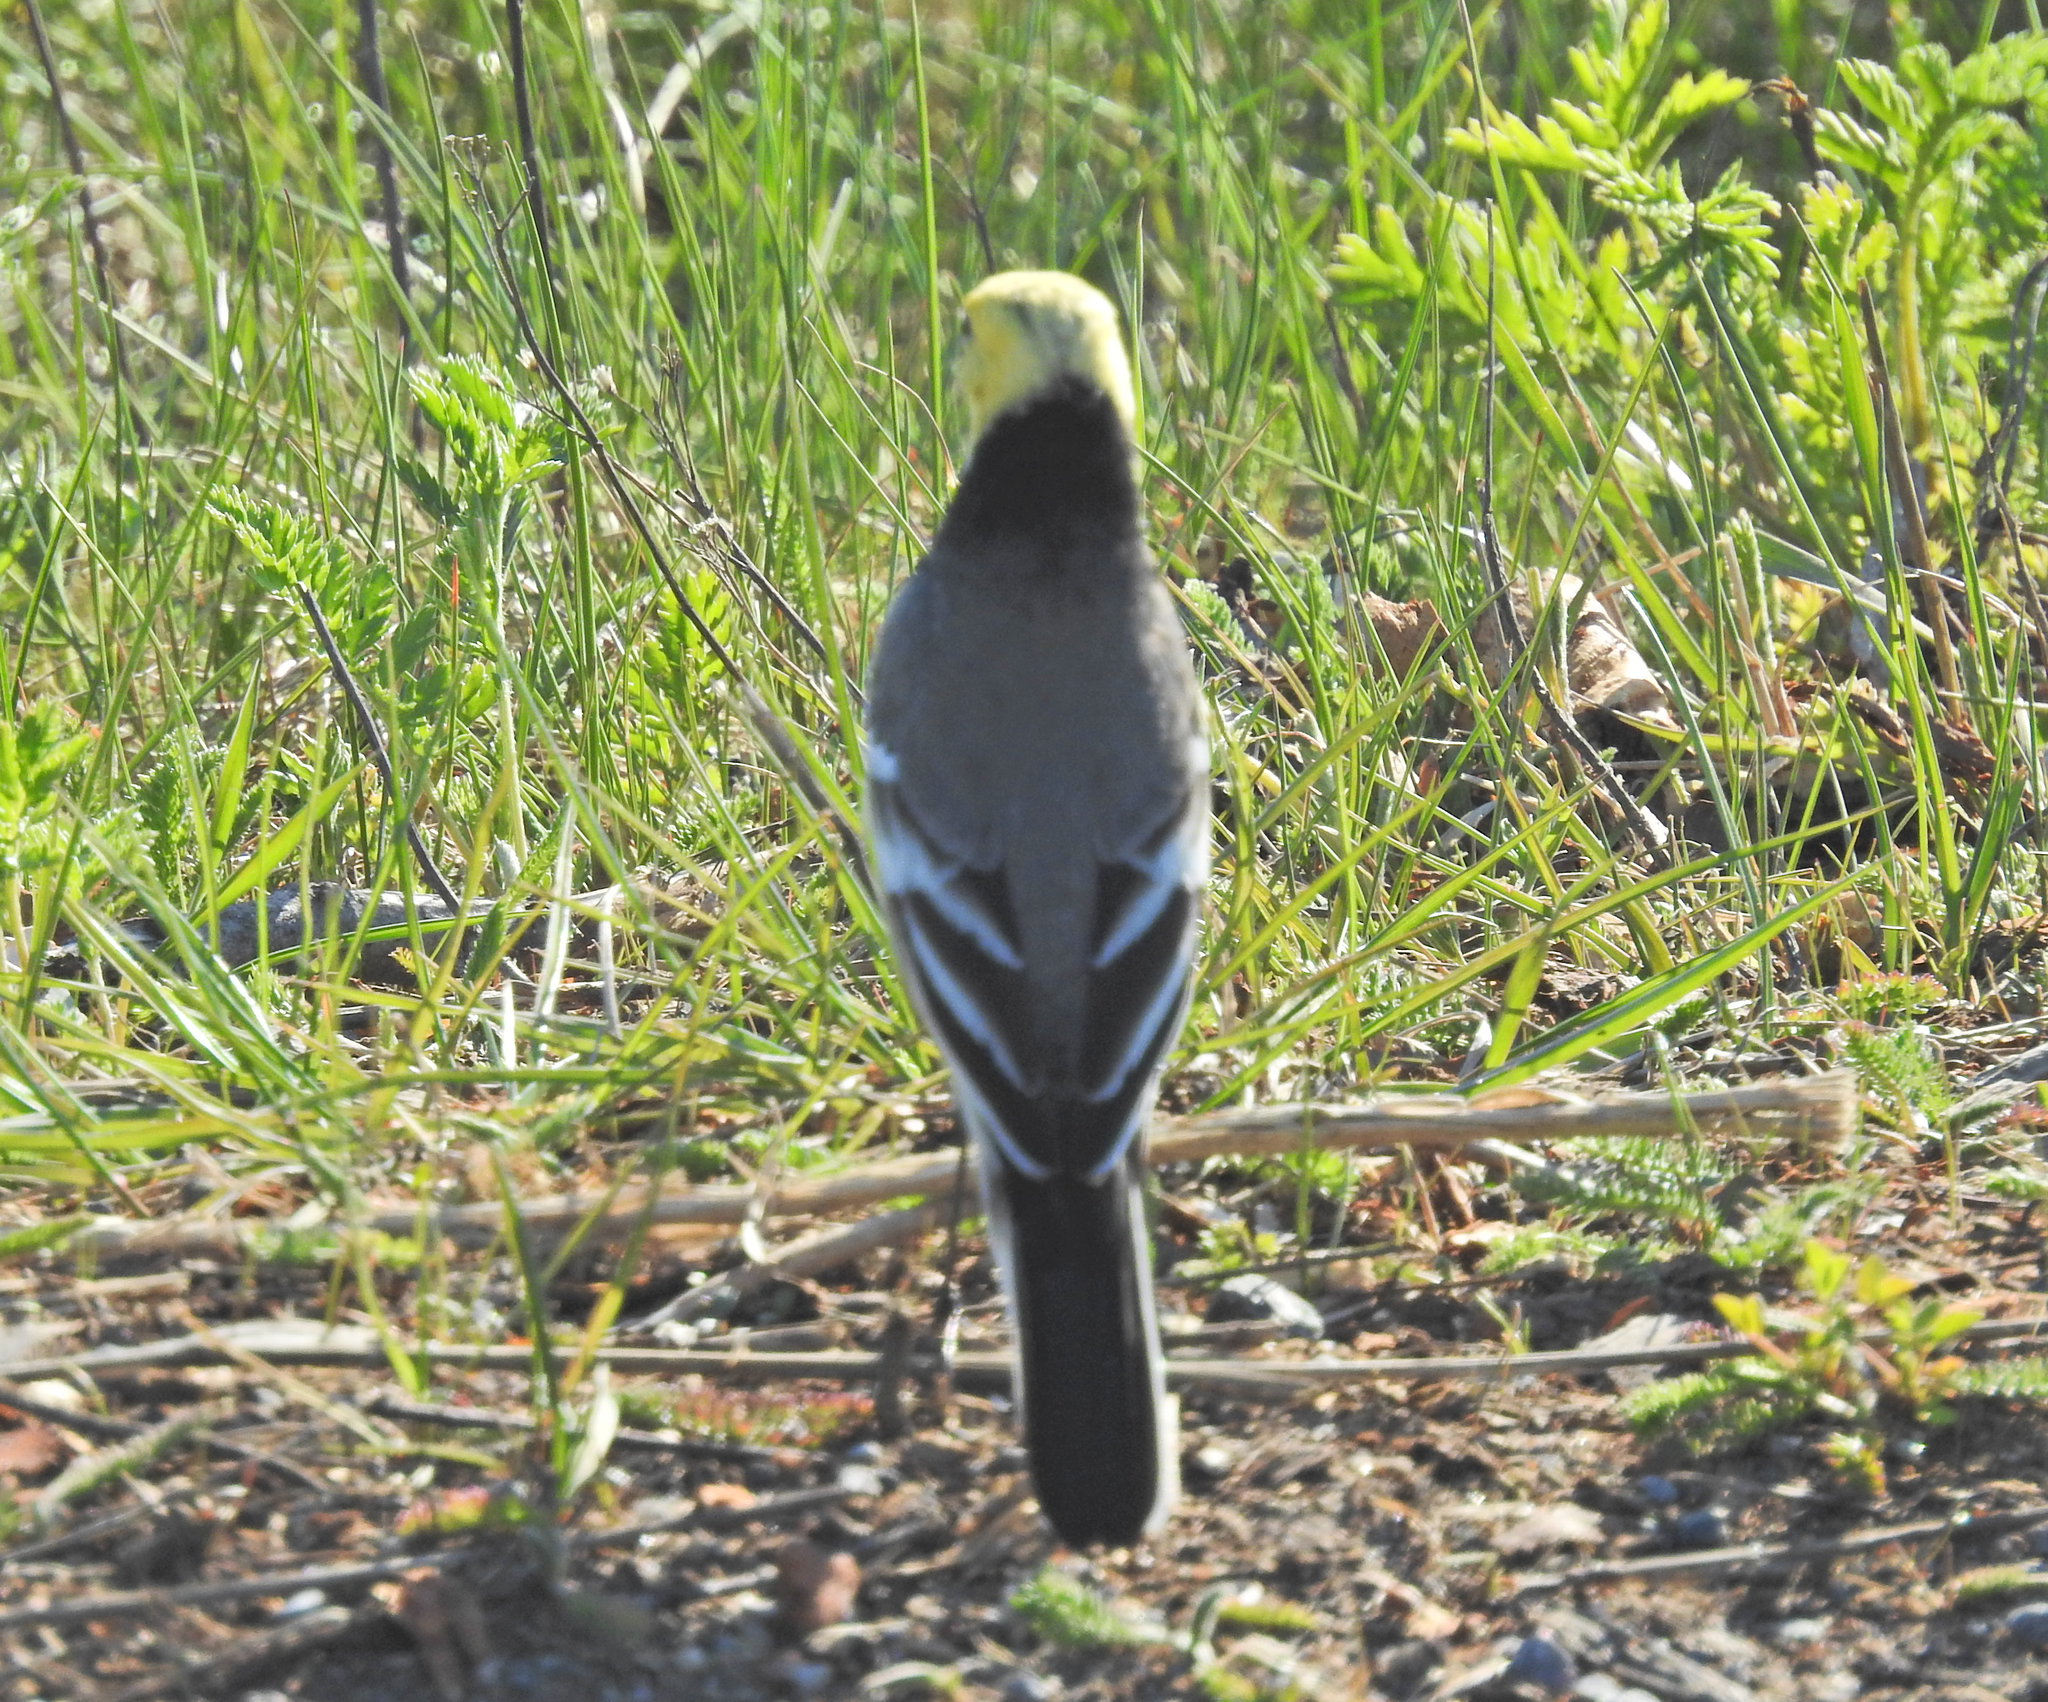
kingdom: Animalia
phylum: Chordata
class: Aves
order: Passeriformes
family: Motacillidae
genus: Motacilla
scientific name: Motacilla citreola
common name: Citrine wagtail
